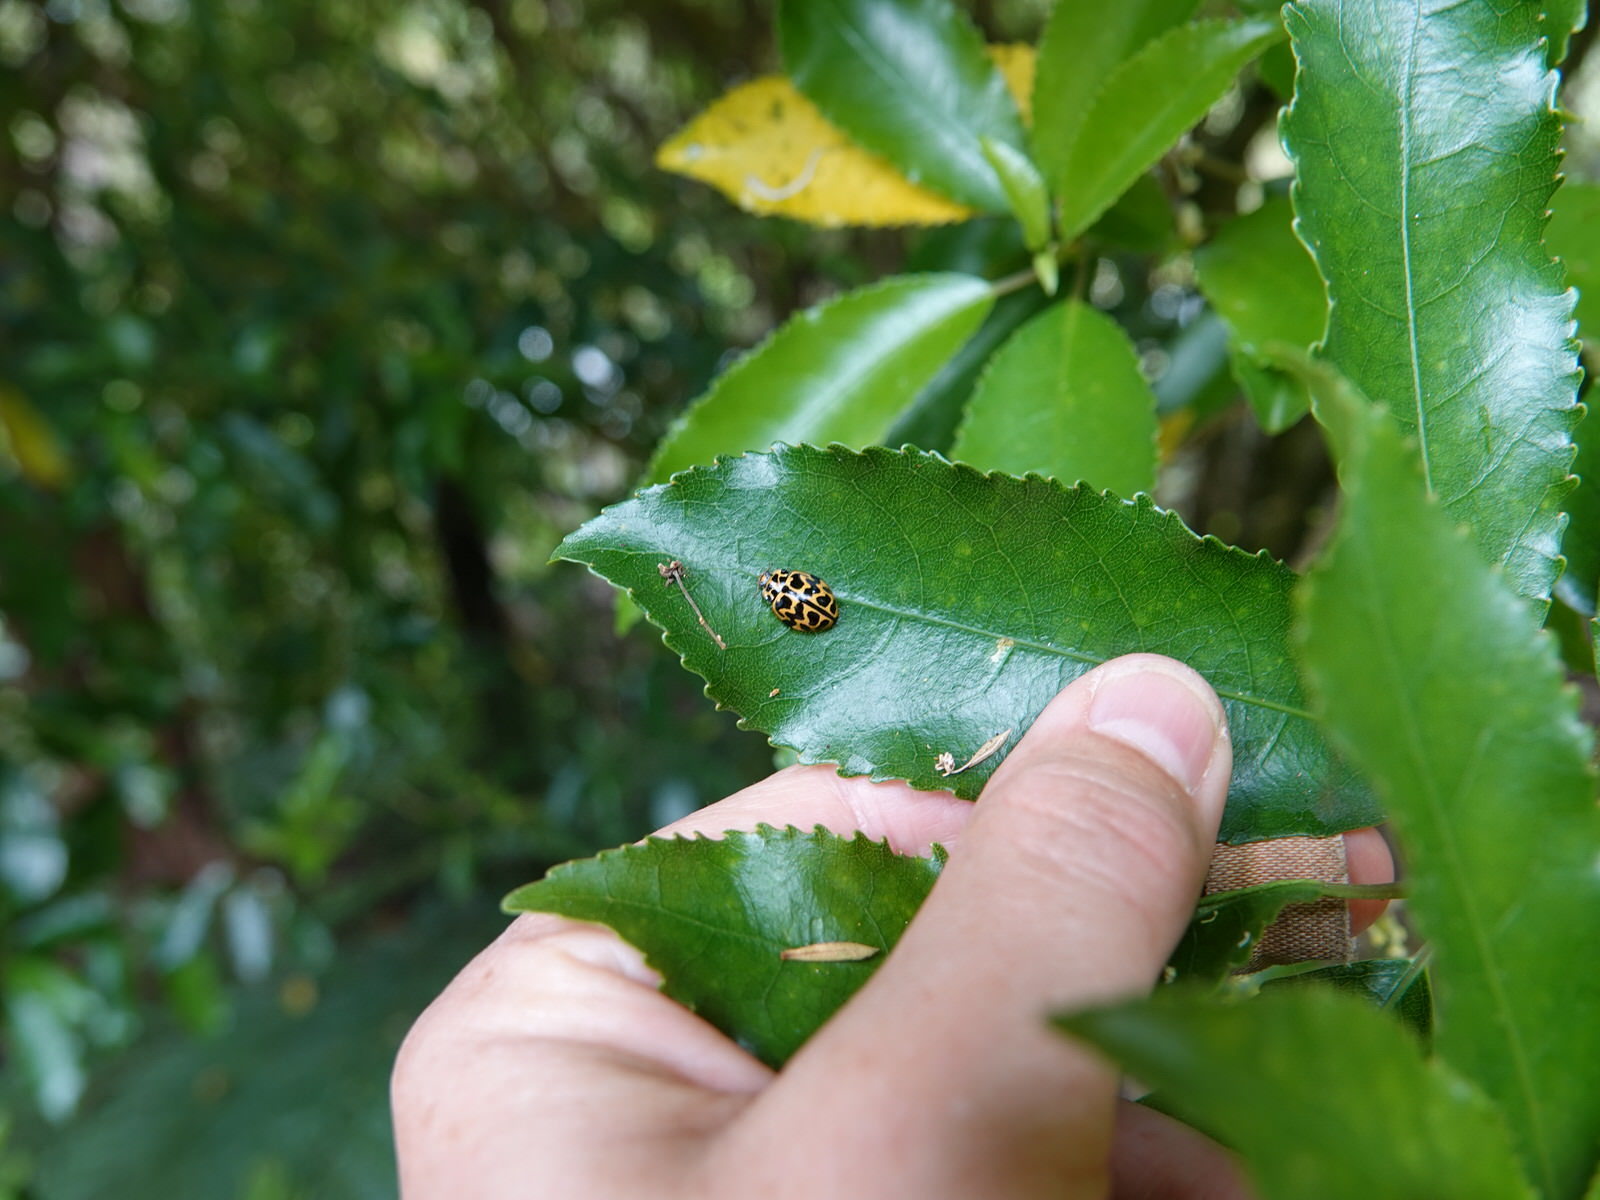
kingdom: Animalia
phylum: Arthropoda
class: Insecta
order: Coleoptera
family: Coccinellidae
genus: Cleobora
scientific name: Cleobora
